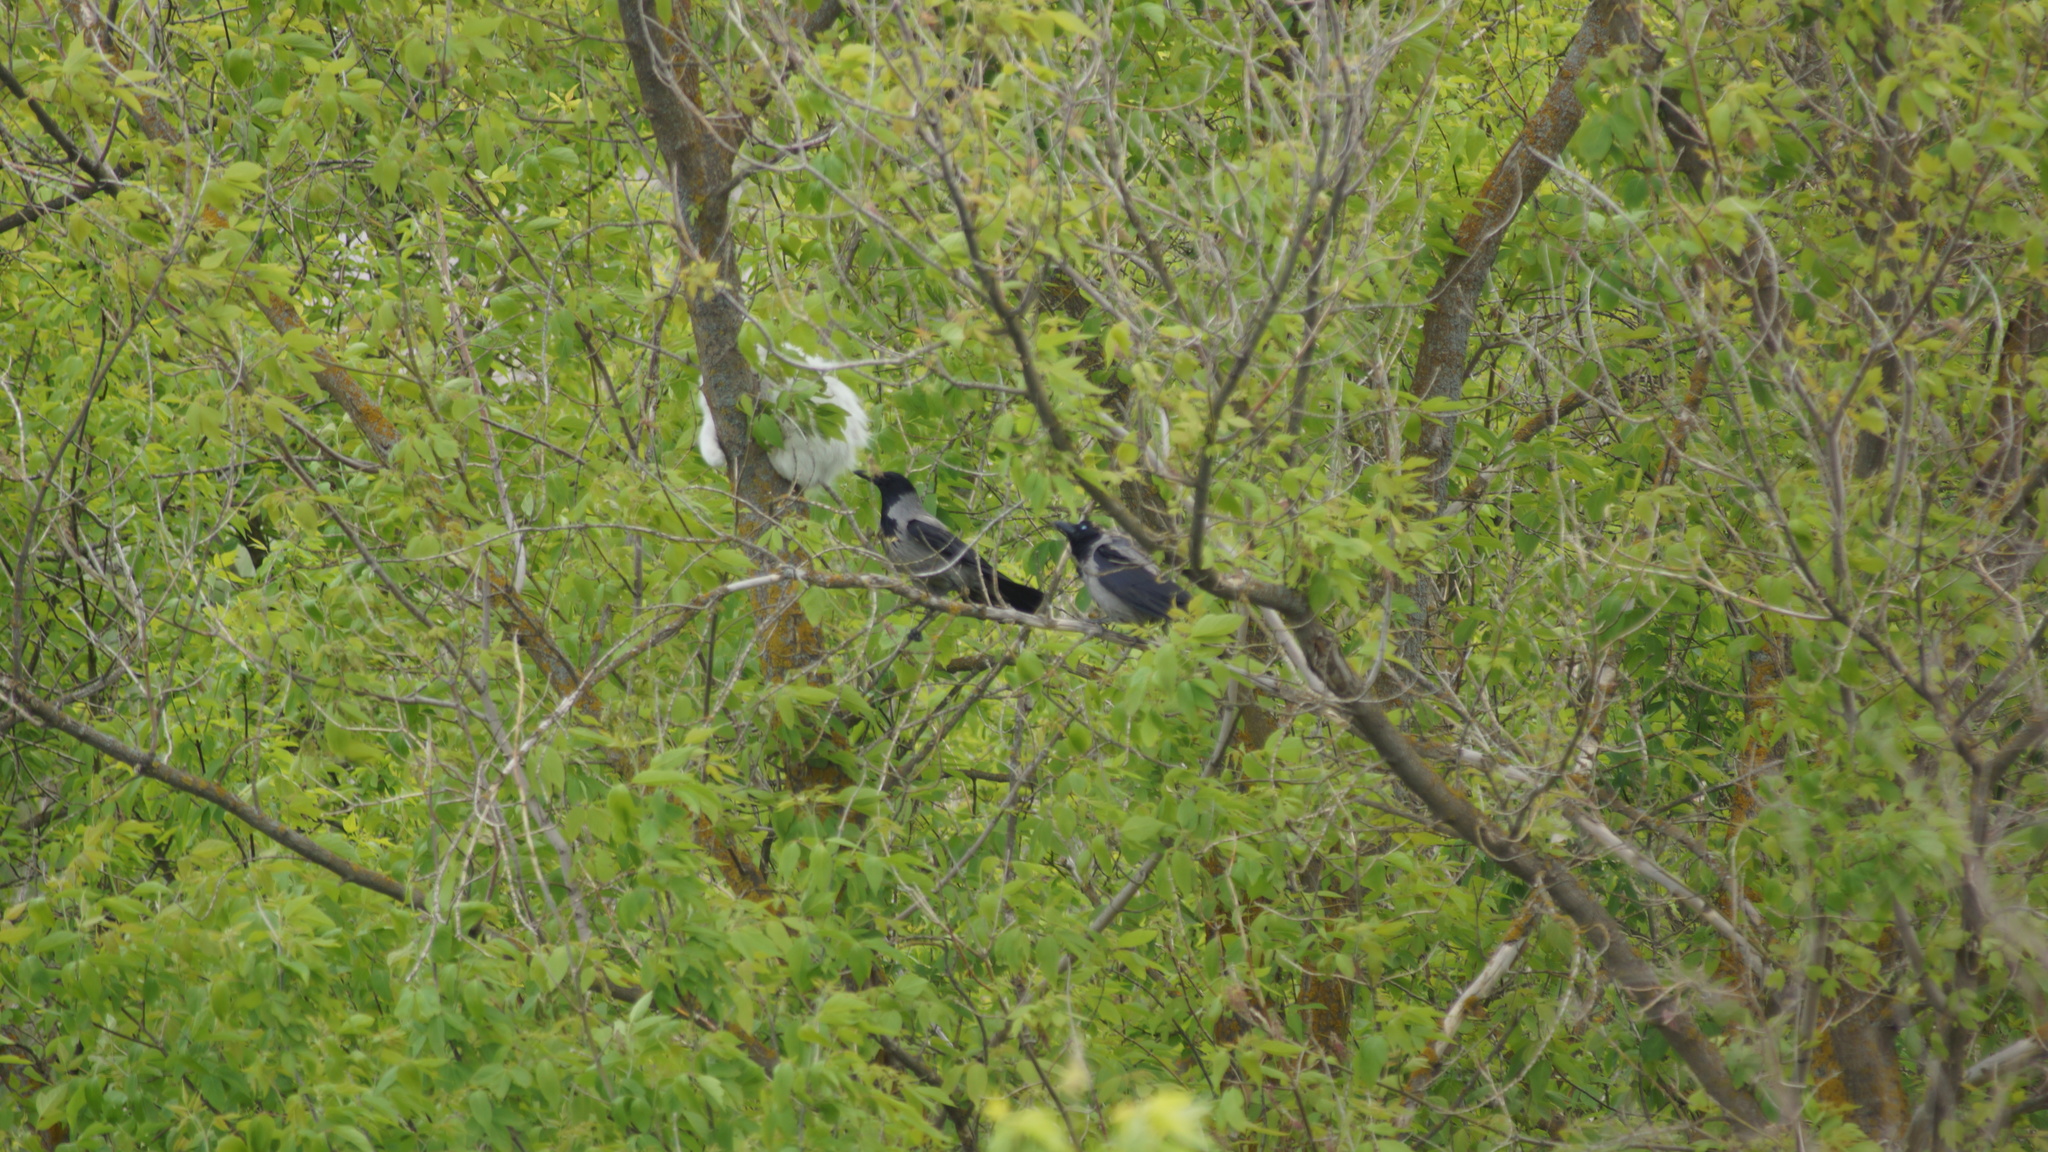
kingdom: Animalia
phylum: Chordata
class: Aves
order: Passeriformes
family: Corvidae
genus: Corvus
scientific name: Corvus cornix
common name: Hooded crow
